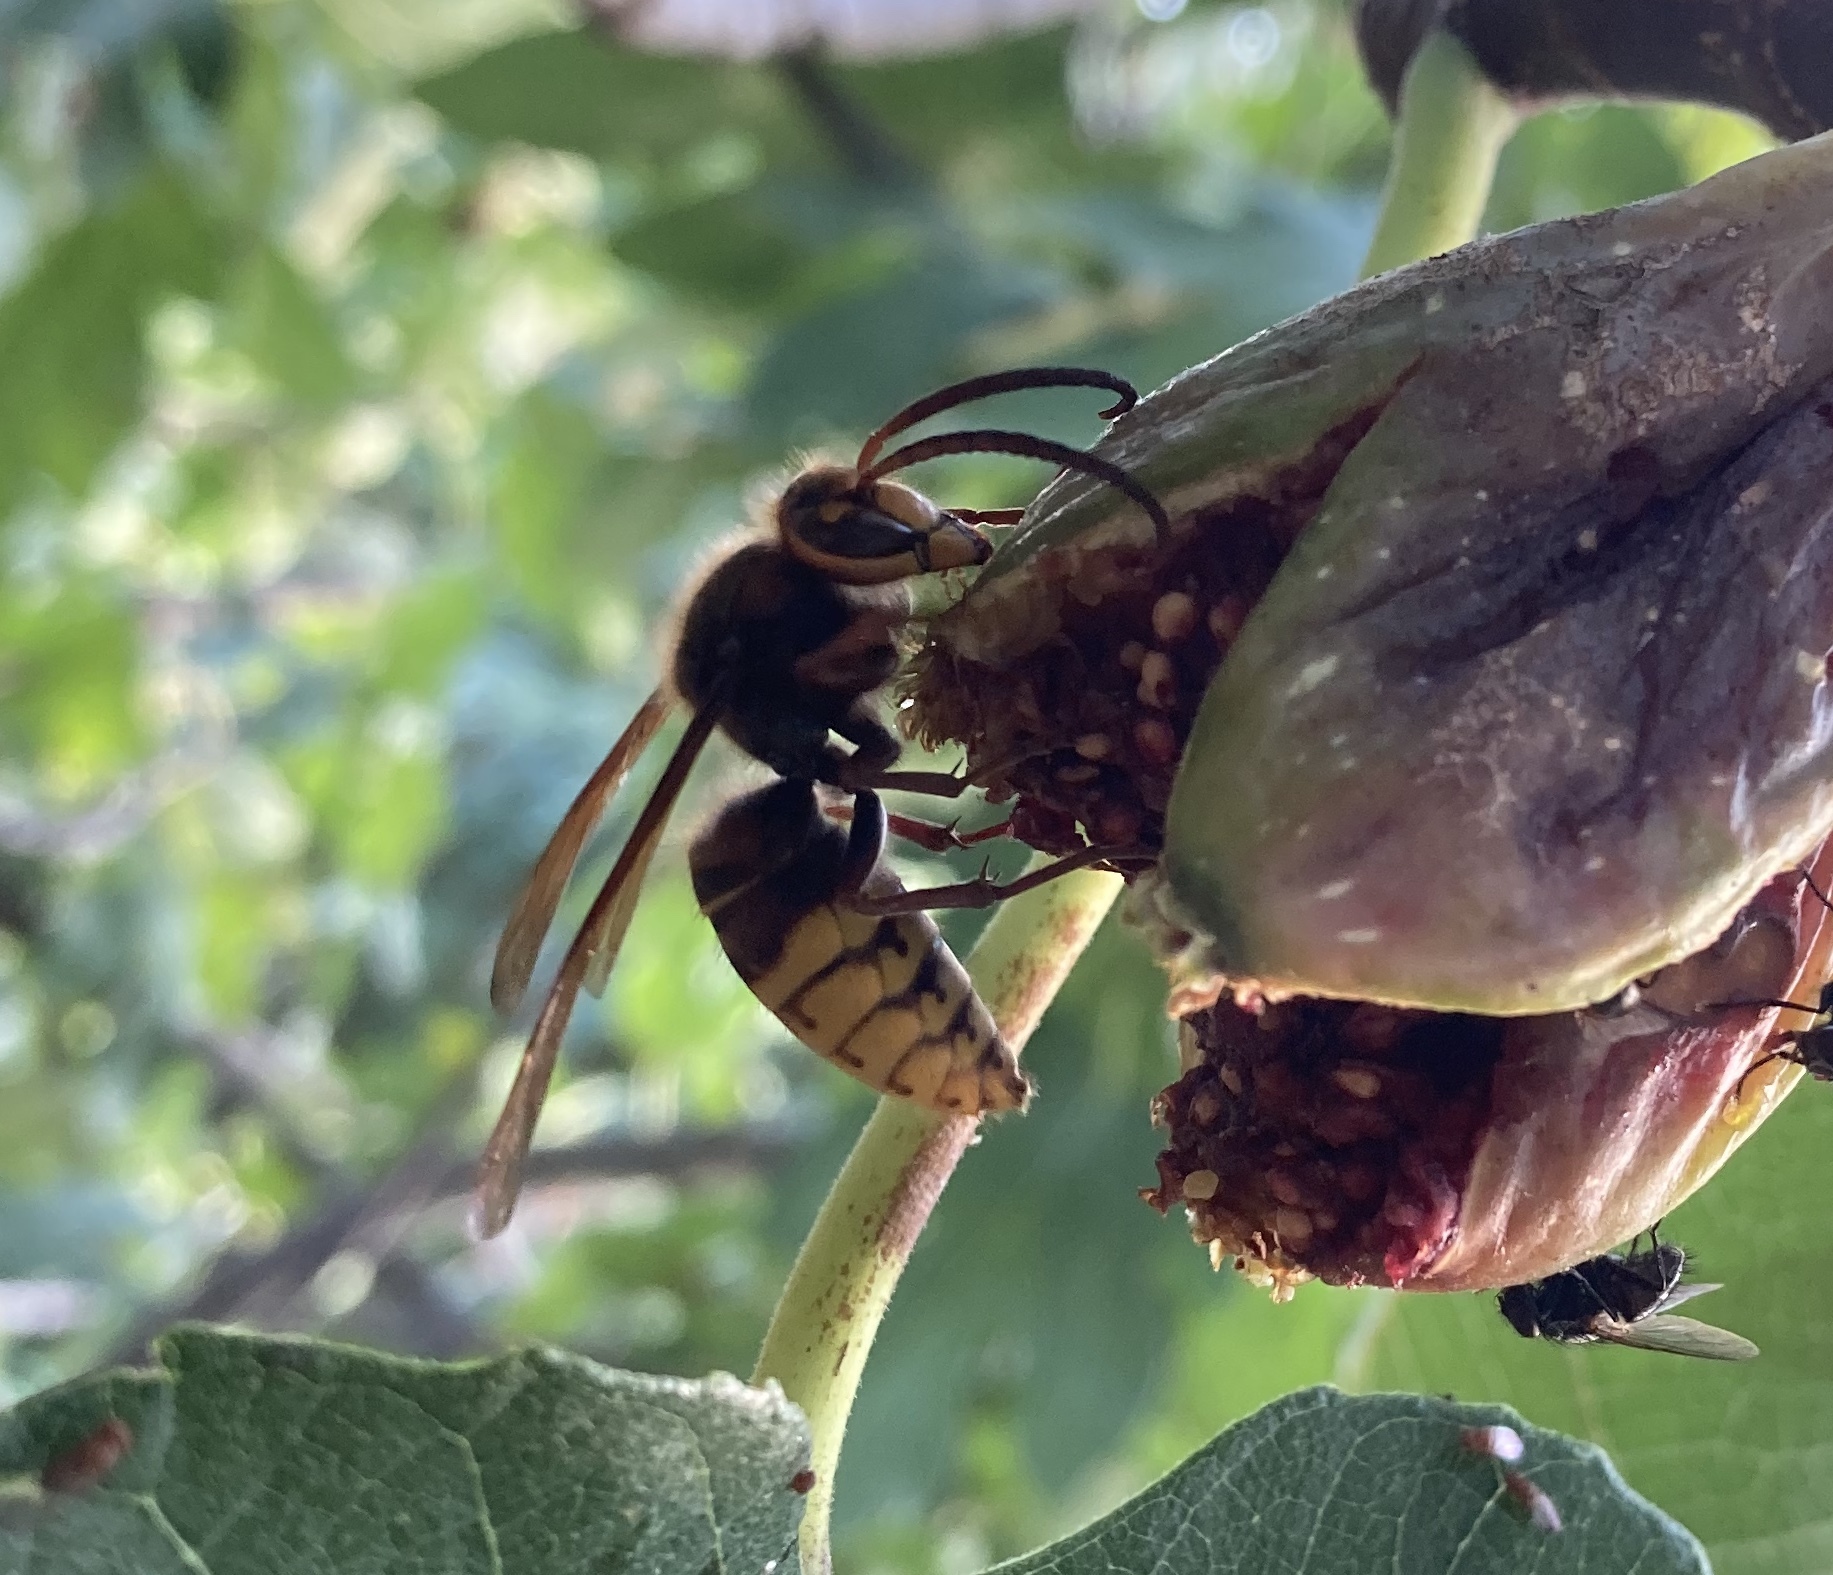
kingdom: Animalia
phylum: Arthropoda
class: Insecta
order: Hymenoptera
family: Vespidae
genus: Vespa
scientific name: Vespa crabro
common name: Hornet
